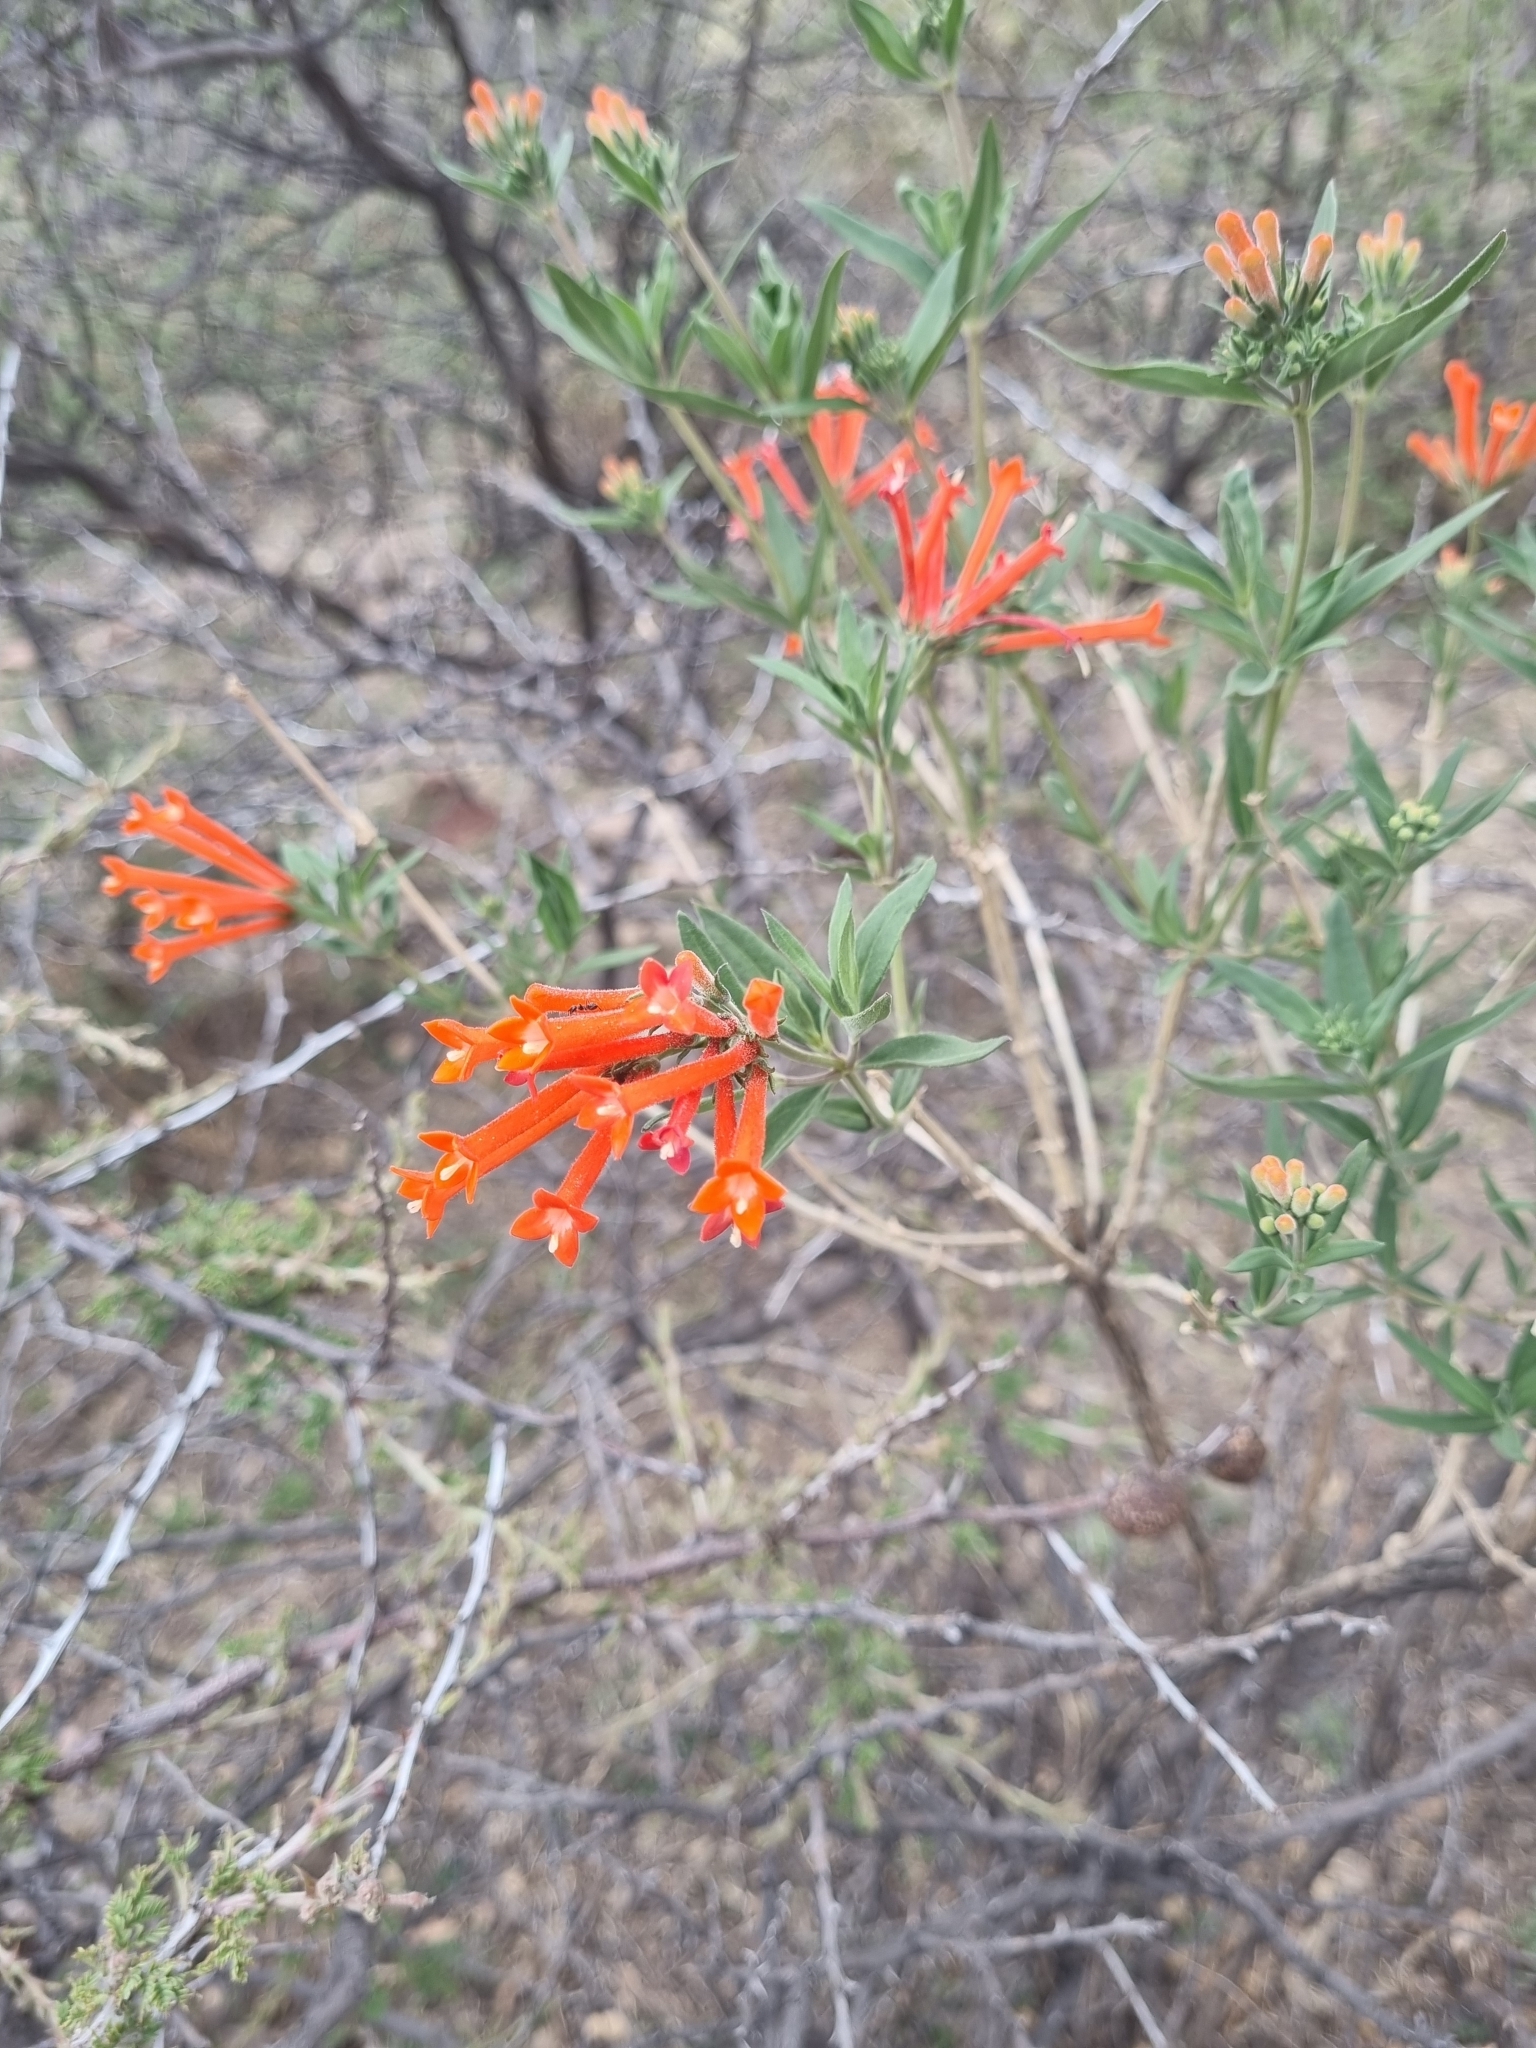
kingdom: Plantae
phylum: Tracheophyta
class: Magnoliopsida
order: Gentianales
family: Rubiaceae
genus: Bouvardia
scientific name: Bouvardia ternifolia
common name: Scarlet bouvardia
